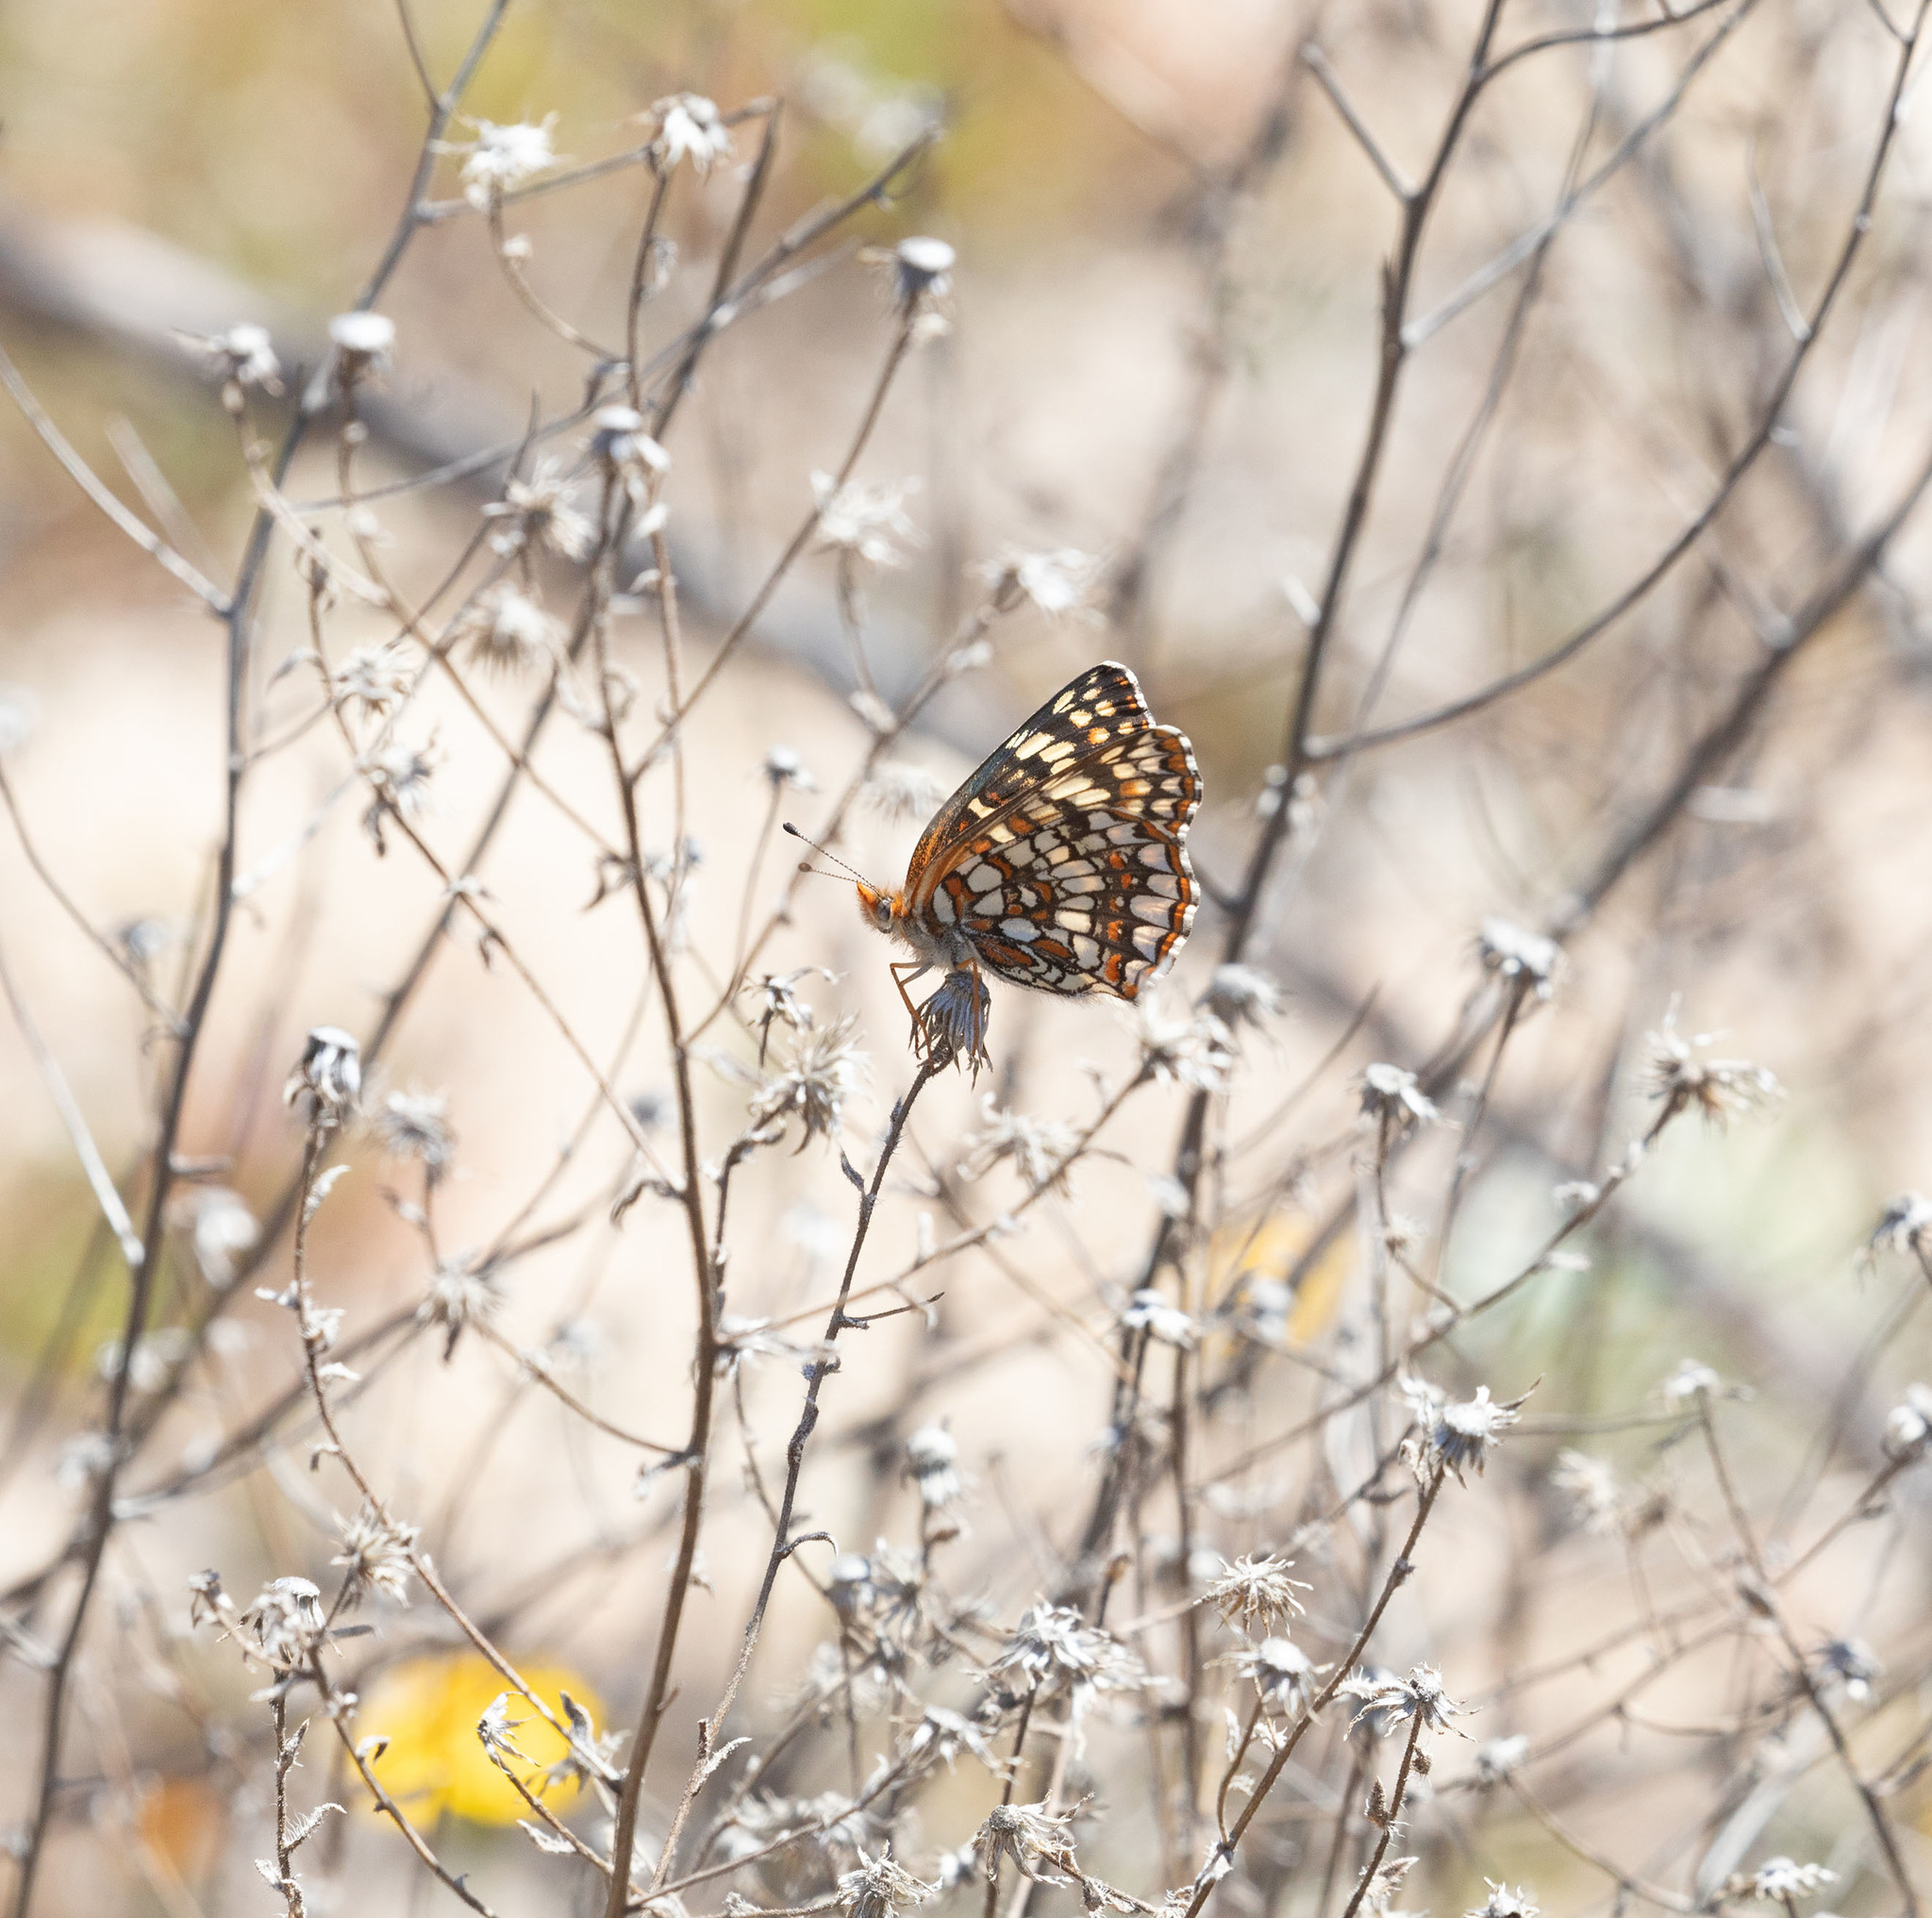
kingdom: Animalia
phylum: Arthropoda
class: Insecta
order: Lepidoptera
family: Nymphalidae
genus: Chlosyne
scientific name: Chlosyne gabbii
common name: Gabb's checkerspot
